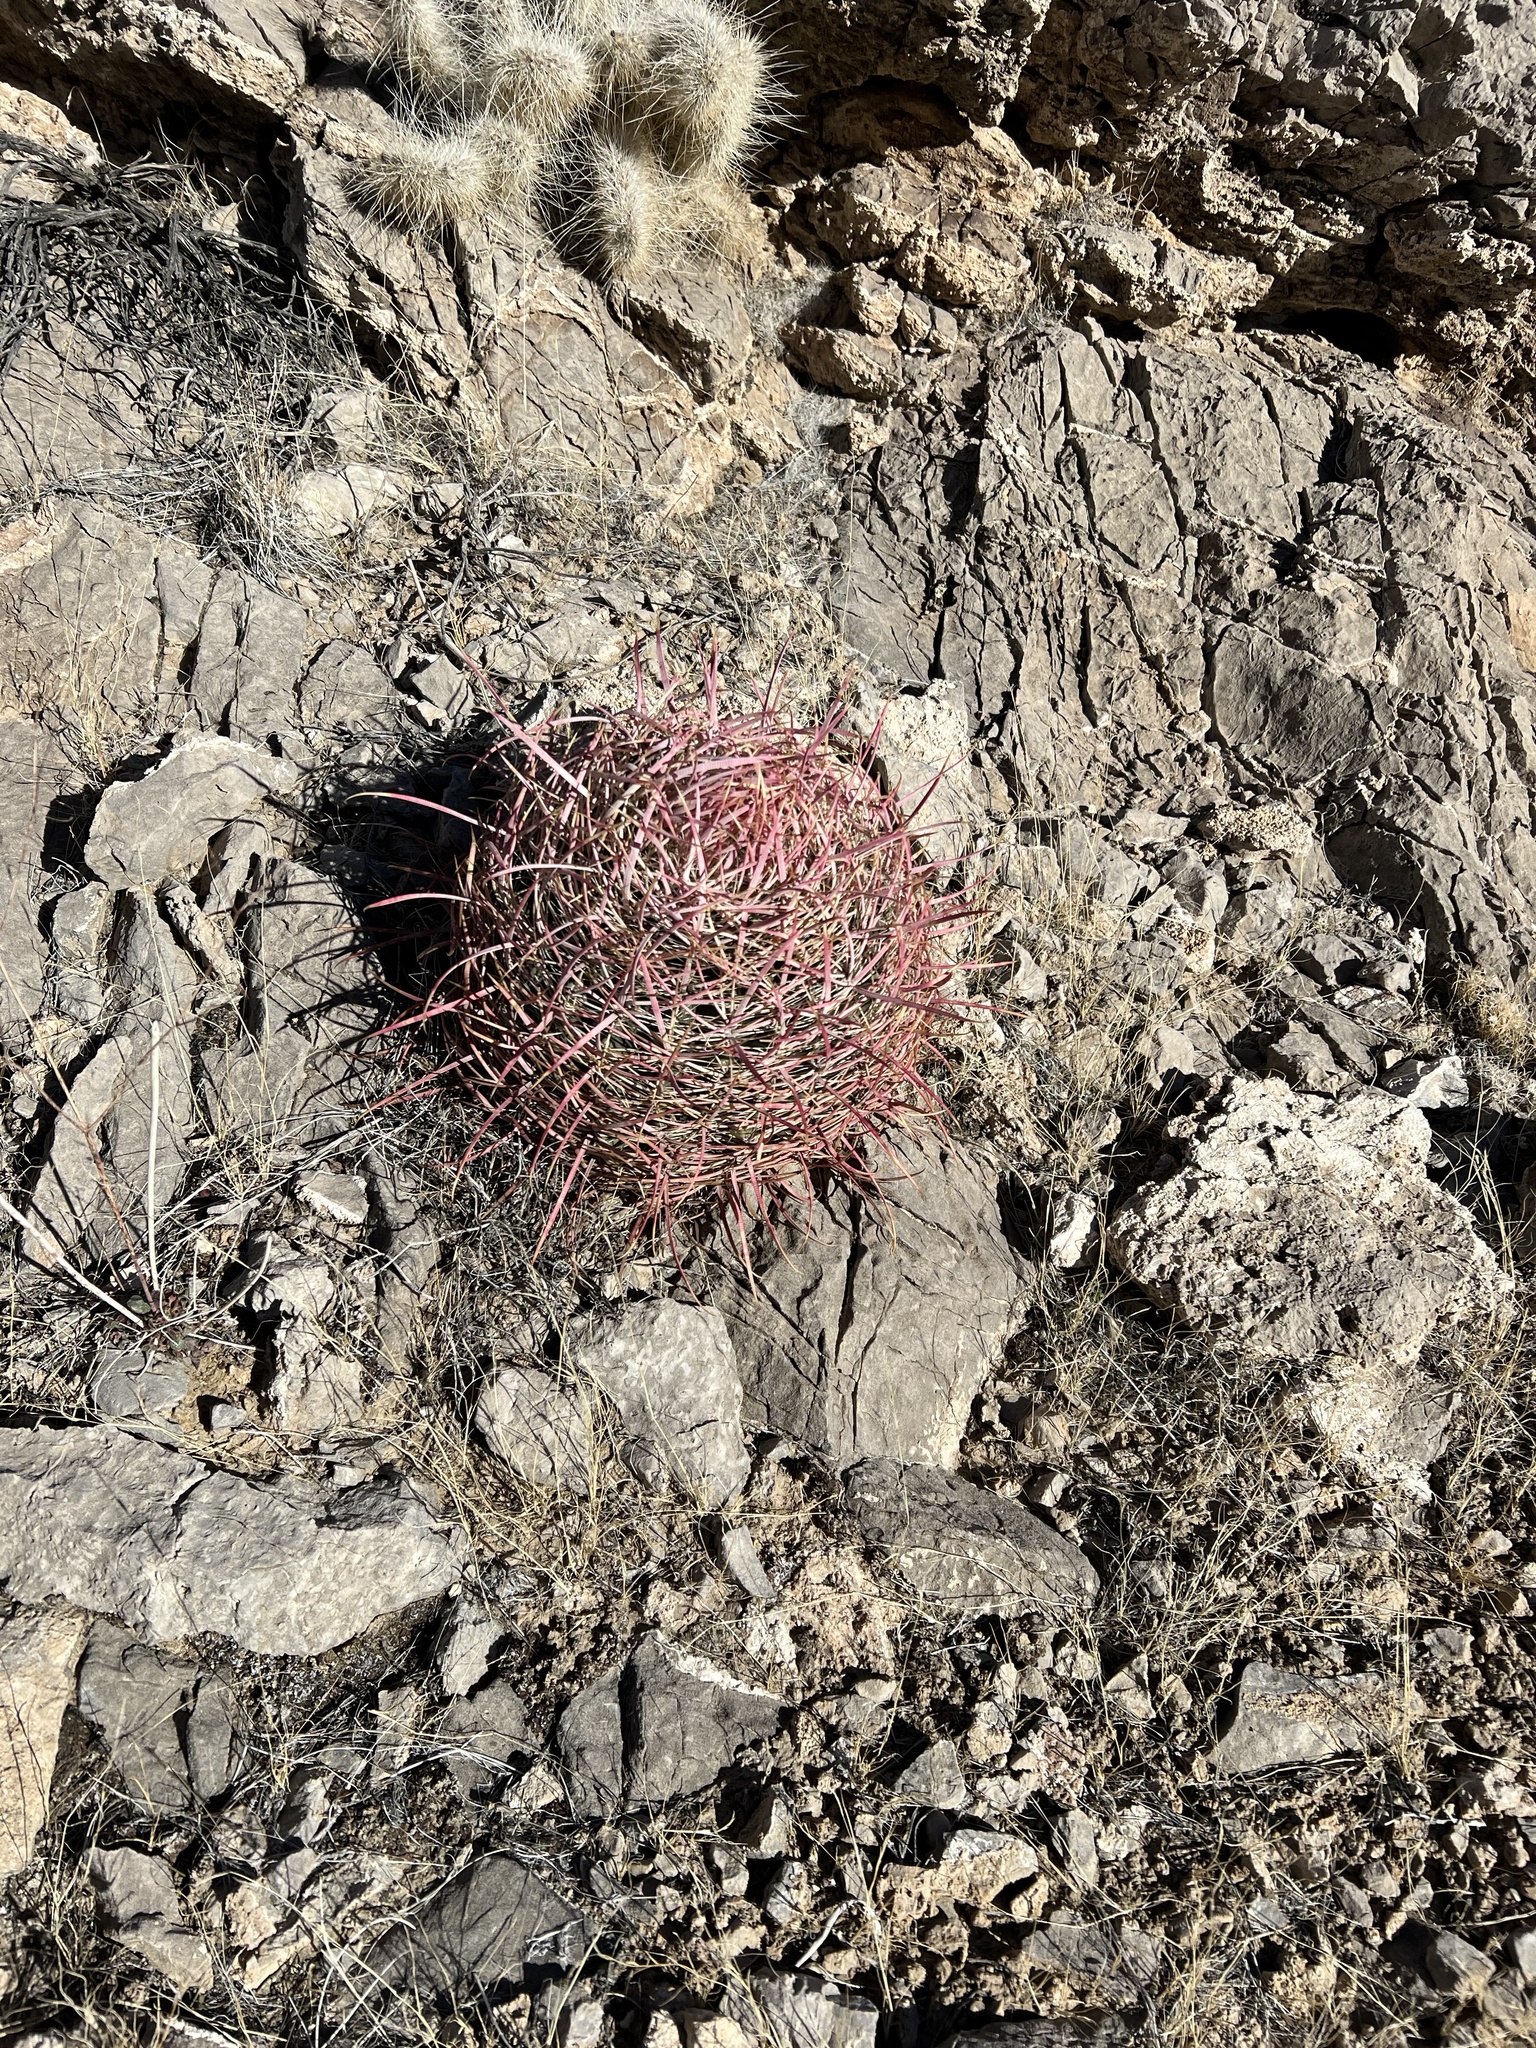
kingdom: Plantae
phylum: Tracheophyta
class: Magnoliopsida
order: Caryophyllales
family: Cactaceae
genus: Ferocactus
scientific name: Ferocactus cylindraceus
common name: California barrel cactus
